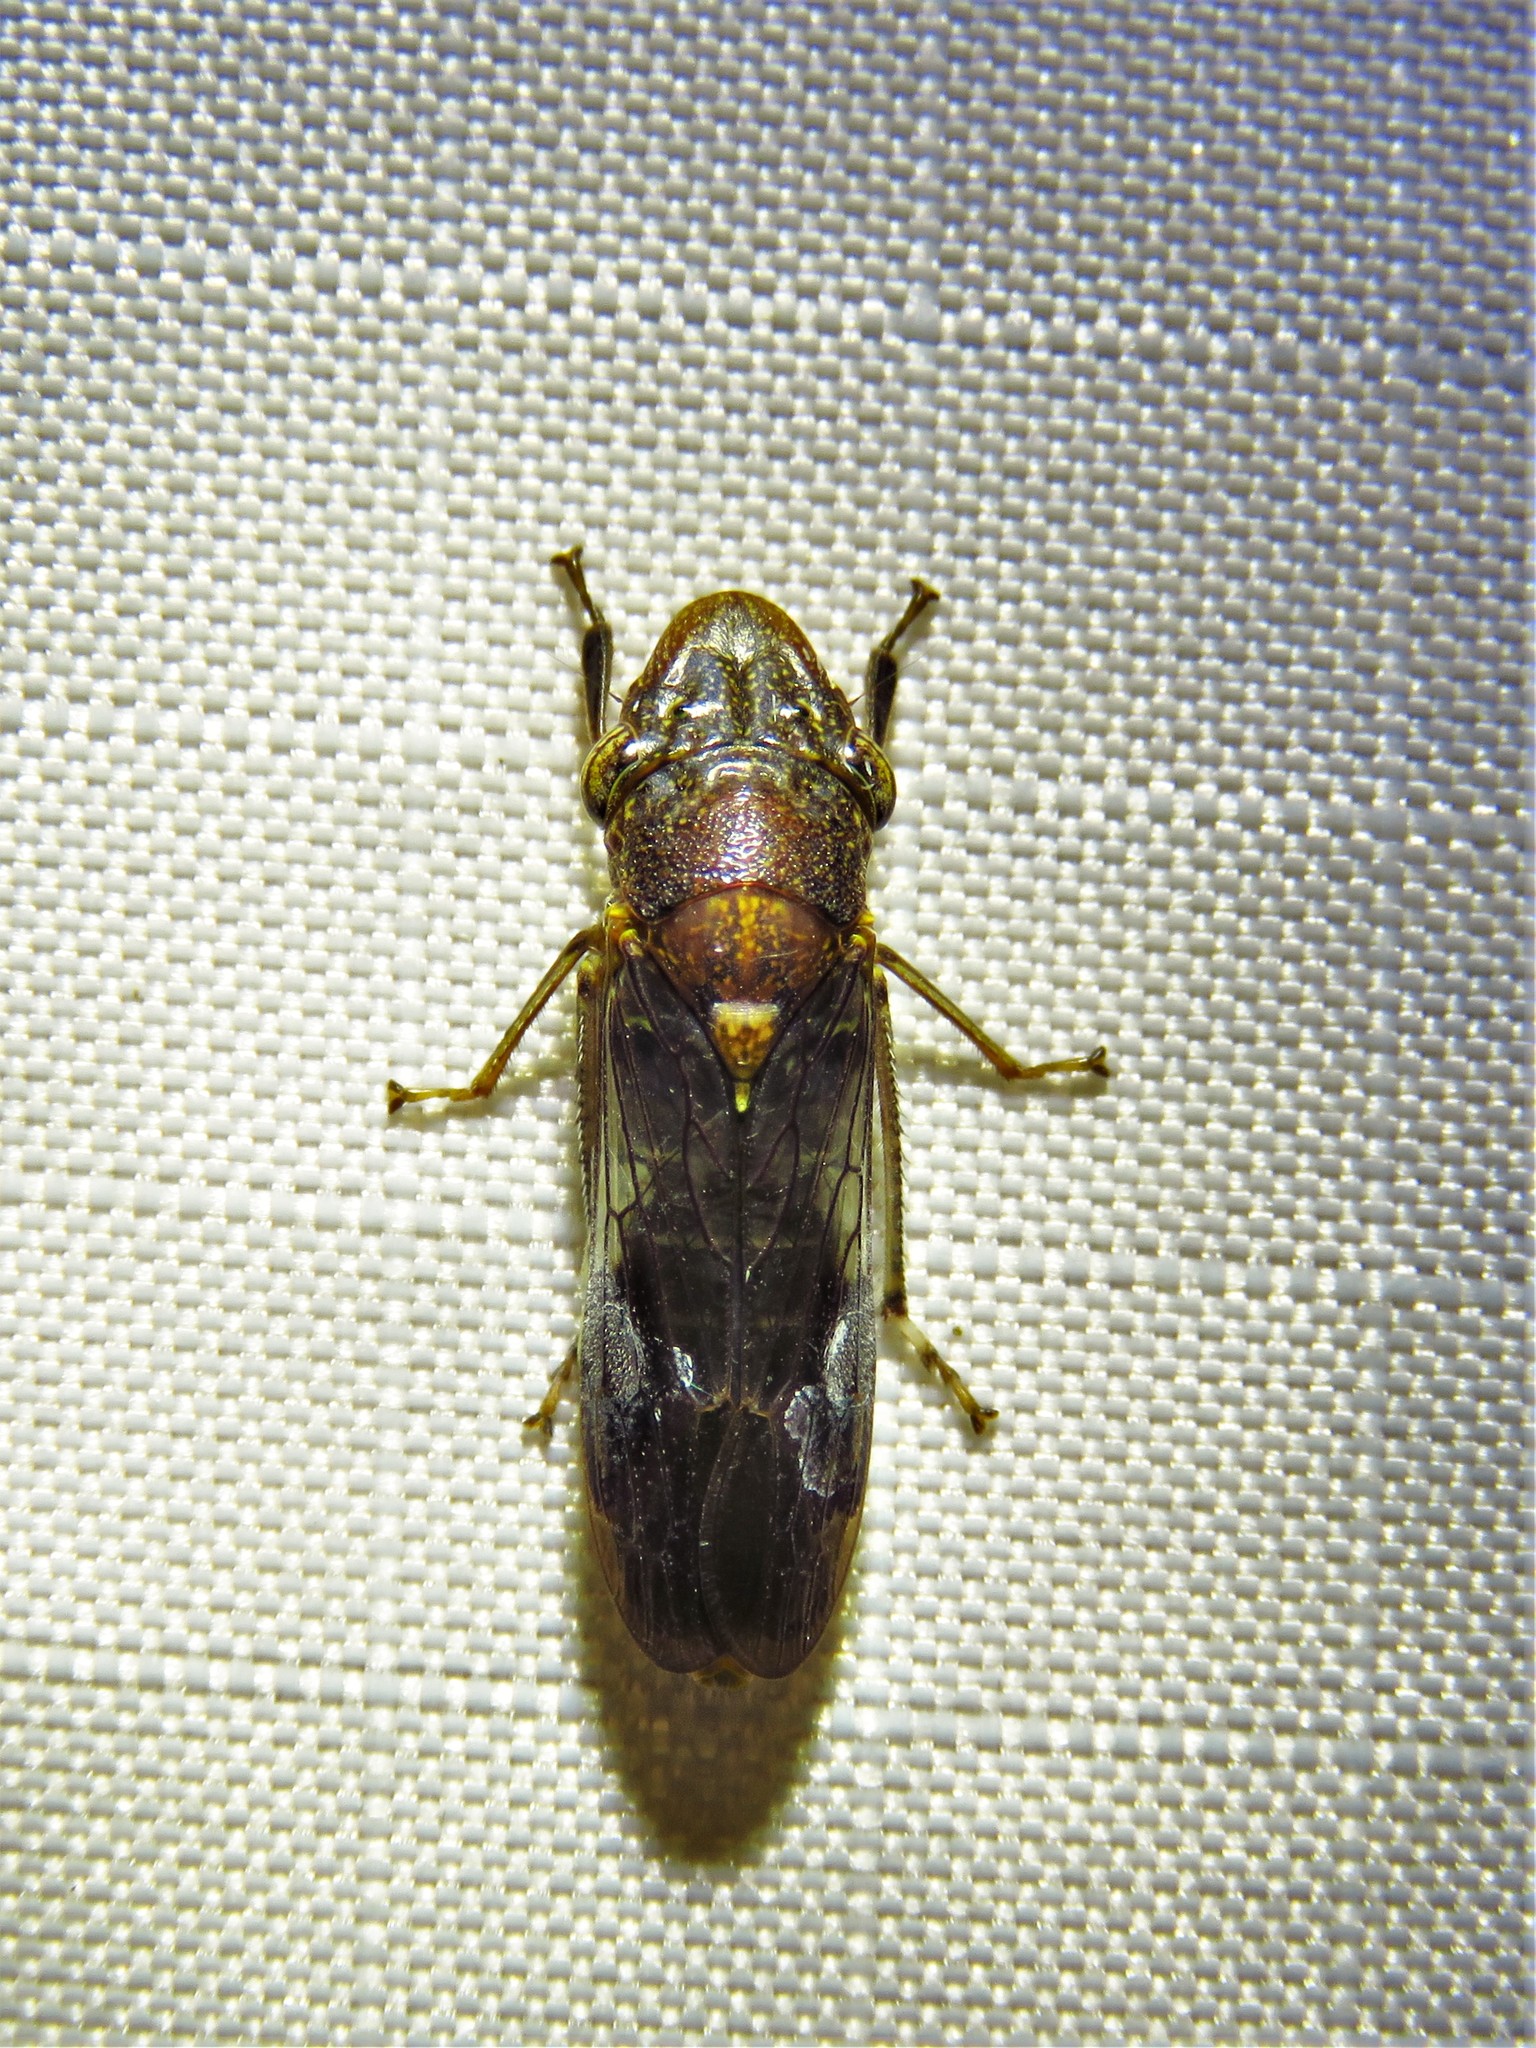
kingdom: Animalia
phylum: Arthropoda
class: Insecta
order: Hemiptera
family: Cicadellidae
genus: Homalodisca
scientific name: Homalodisca vitripennis
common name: Glassy-winged sharpshooter
